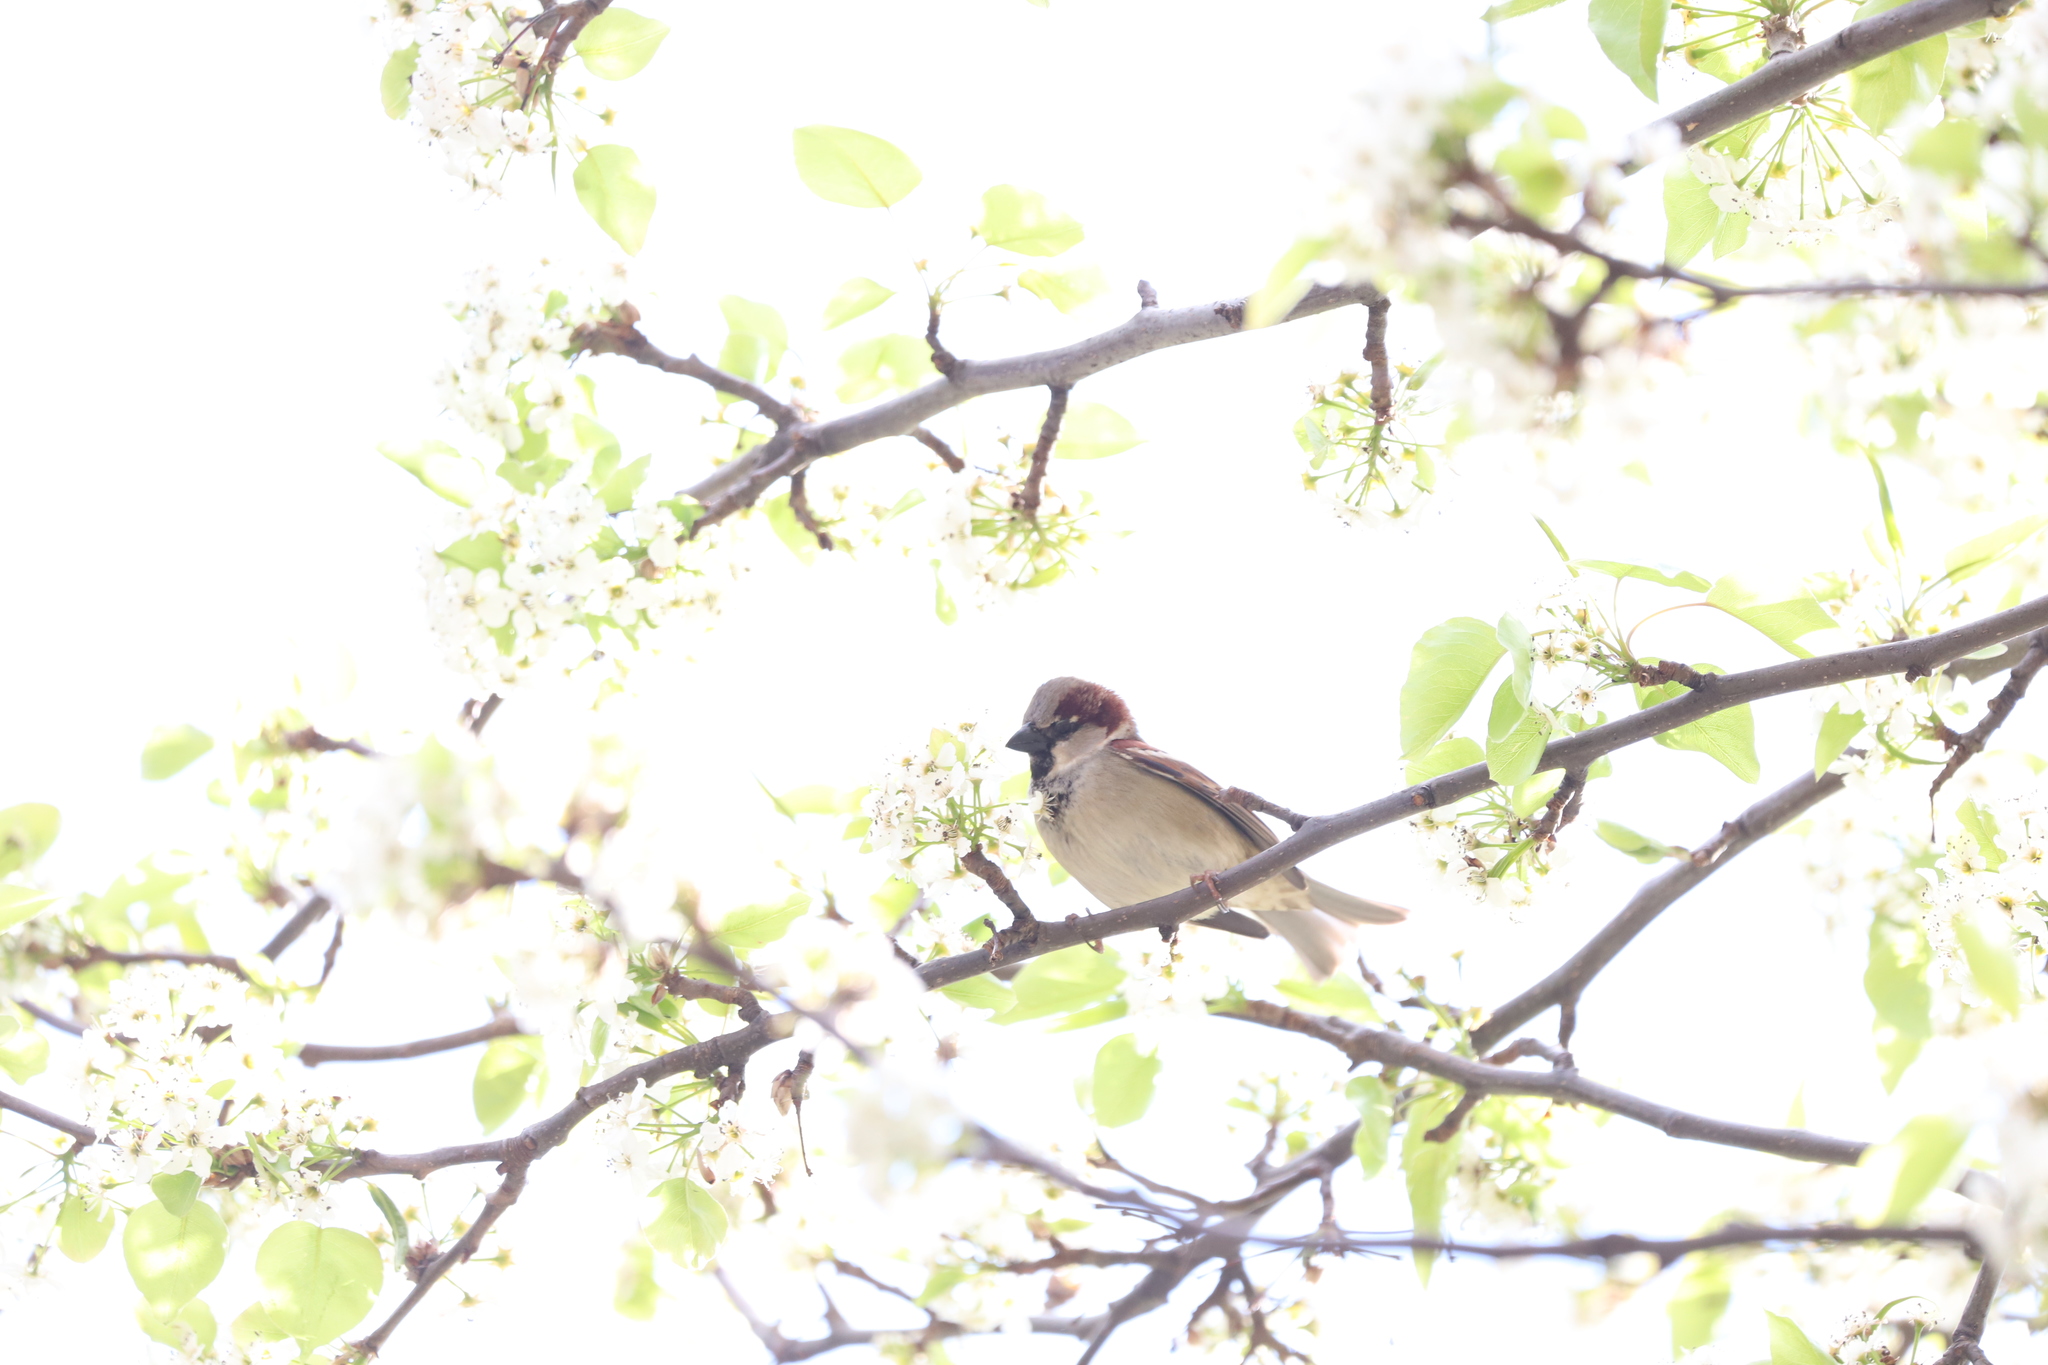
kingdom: Animalia
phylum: Chordata
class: Aves
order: Passeriformes
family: Passeridae
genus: Passer
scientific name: Passer domesticus
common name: House sparrow
